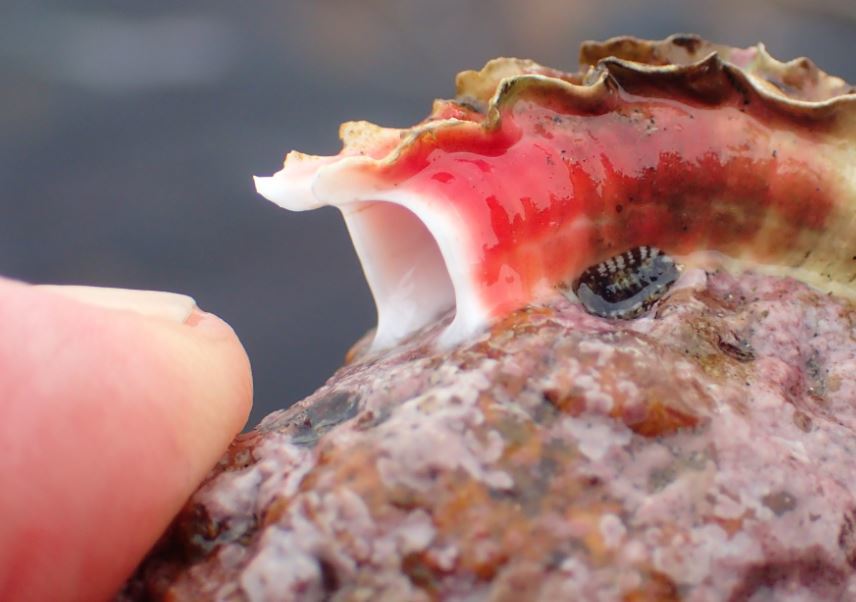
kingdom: Animalia
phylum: Annelida
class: Polychaeta
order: Sabellida
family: Serpulidae
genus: Galeolaria
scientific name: Galeolaria hystrix
